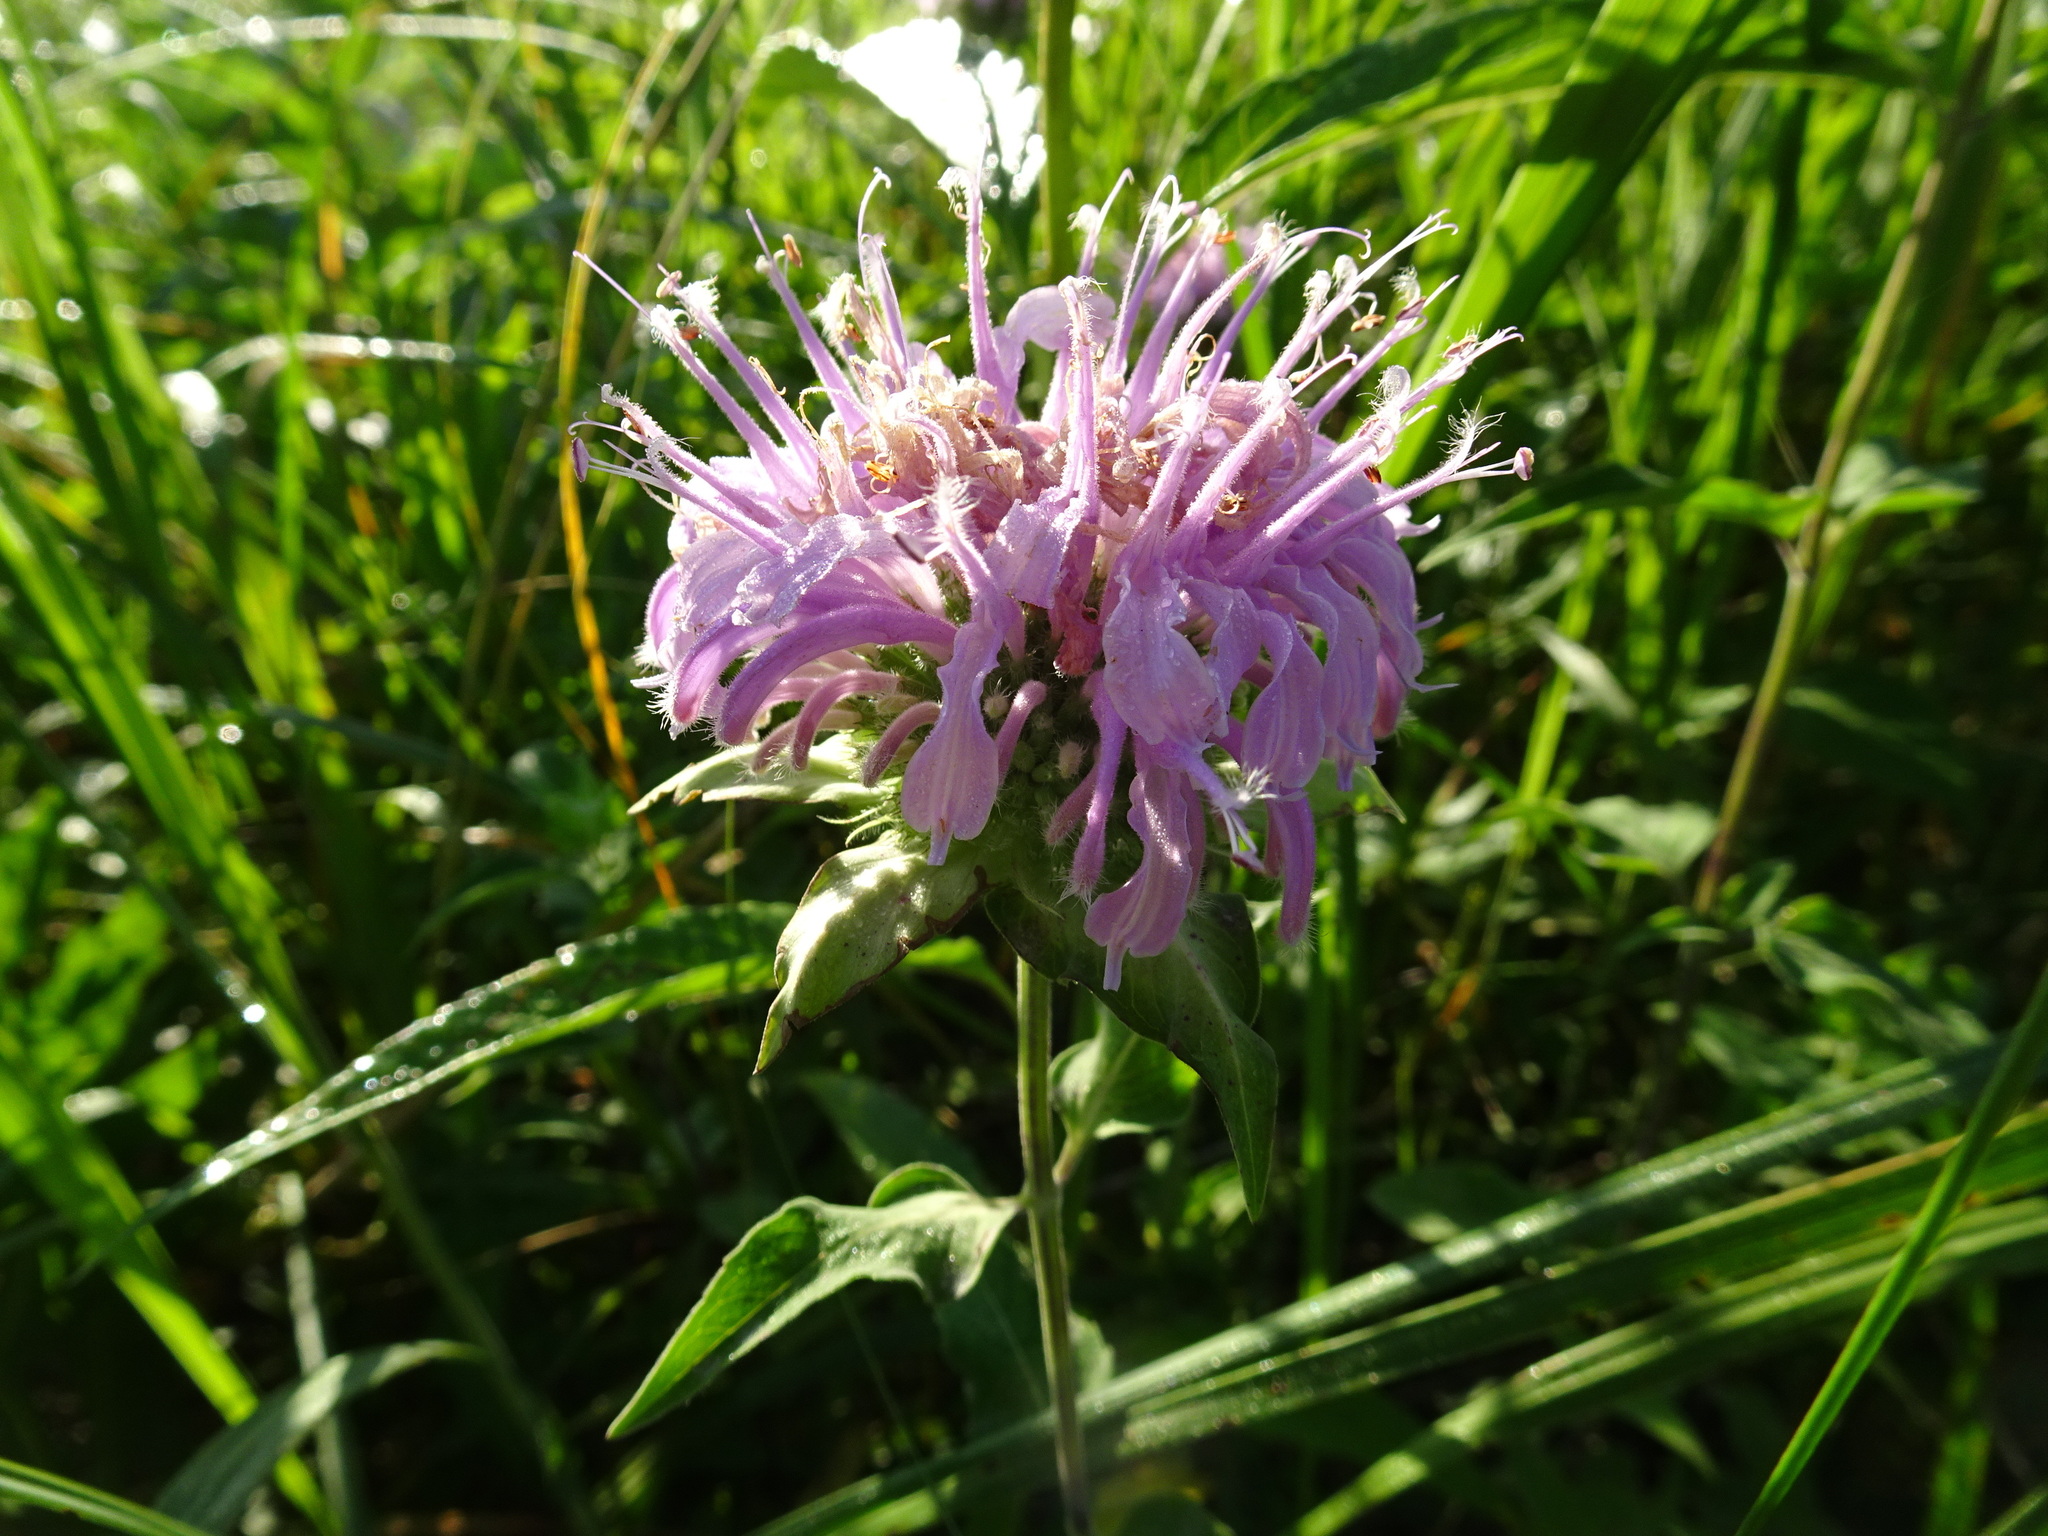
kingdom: Plantae
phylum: Tracheophyta
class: Magnoliopsida
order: Lamiales
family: Lamiaceae
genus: Monarda
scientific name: Monarda fistulosa
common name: Purple beebalm
